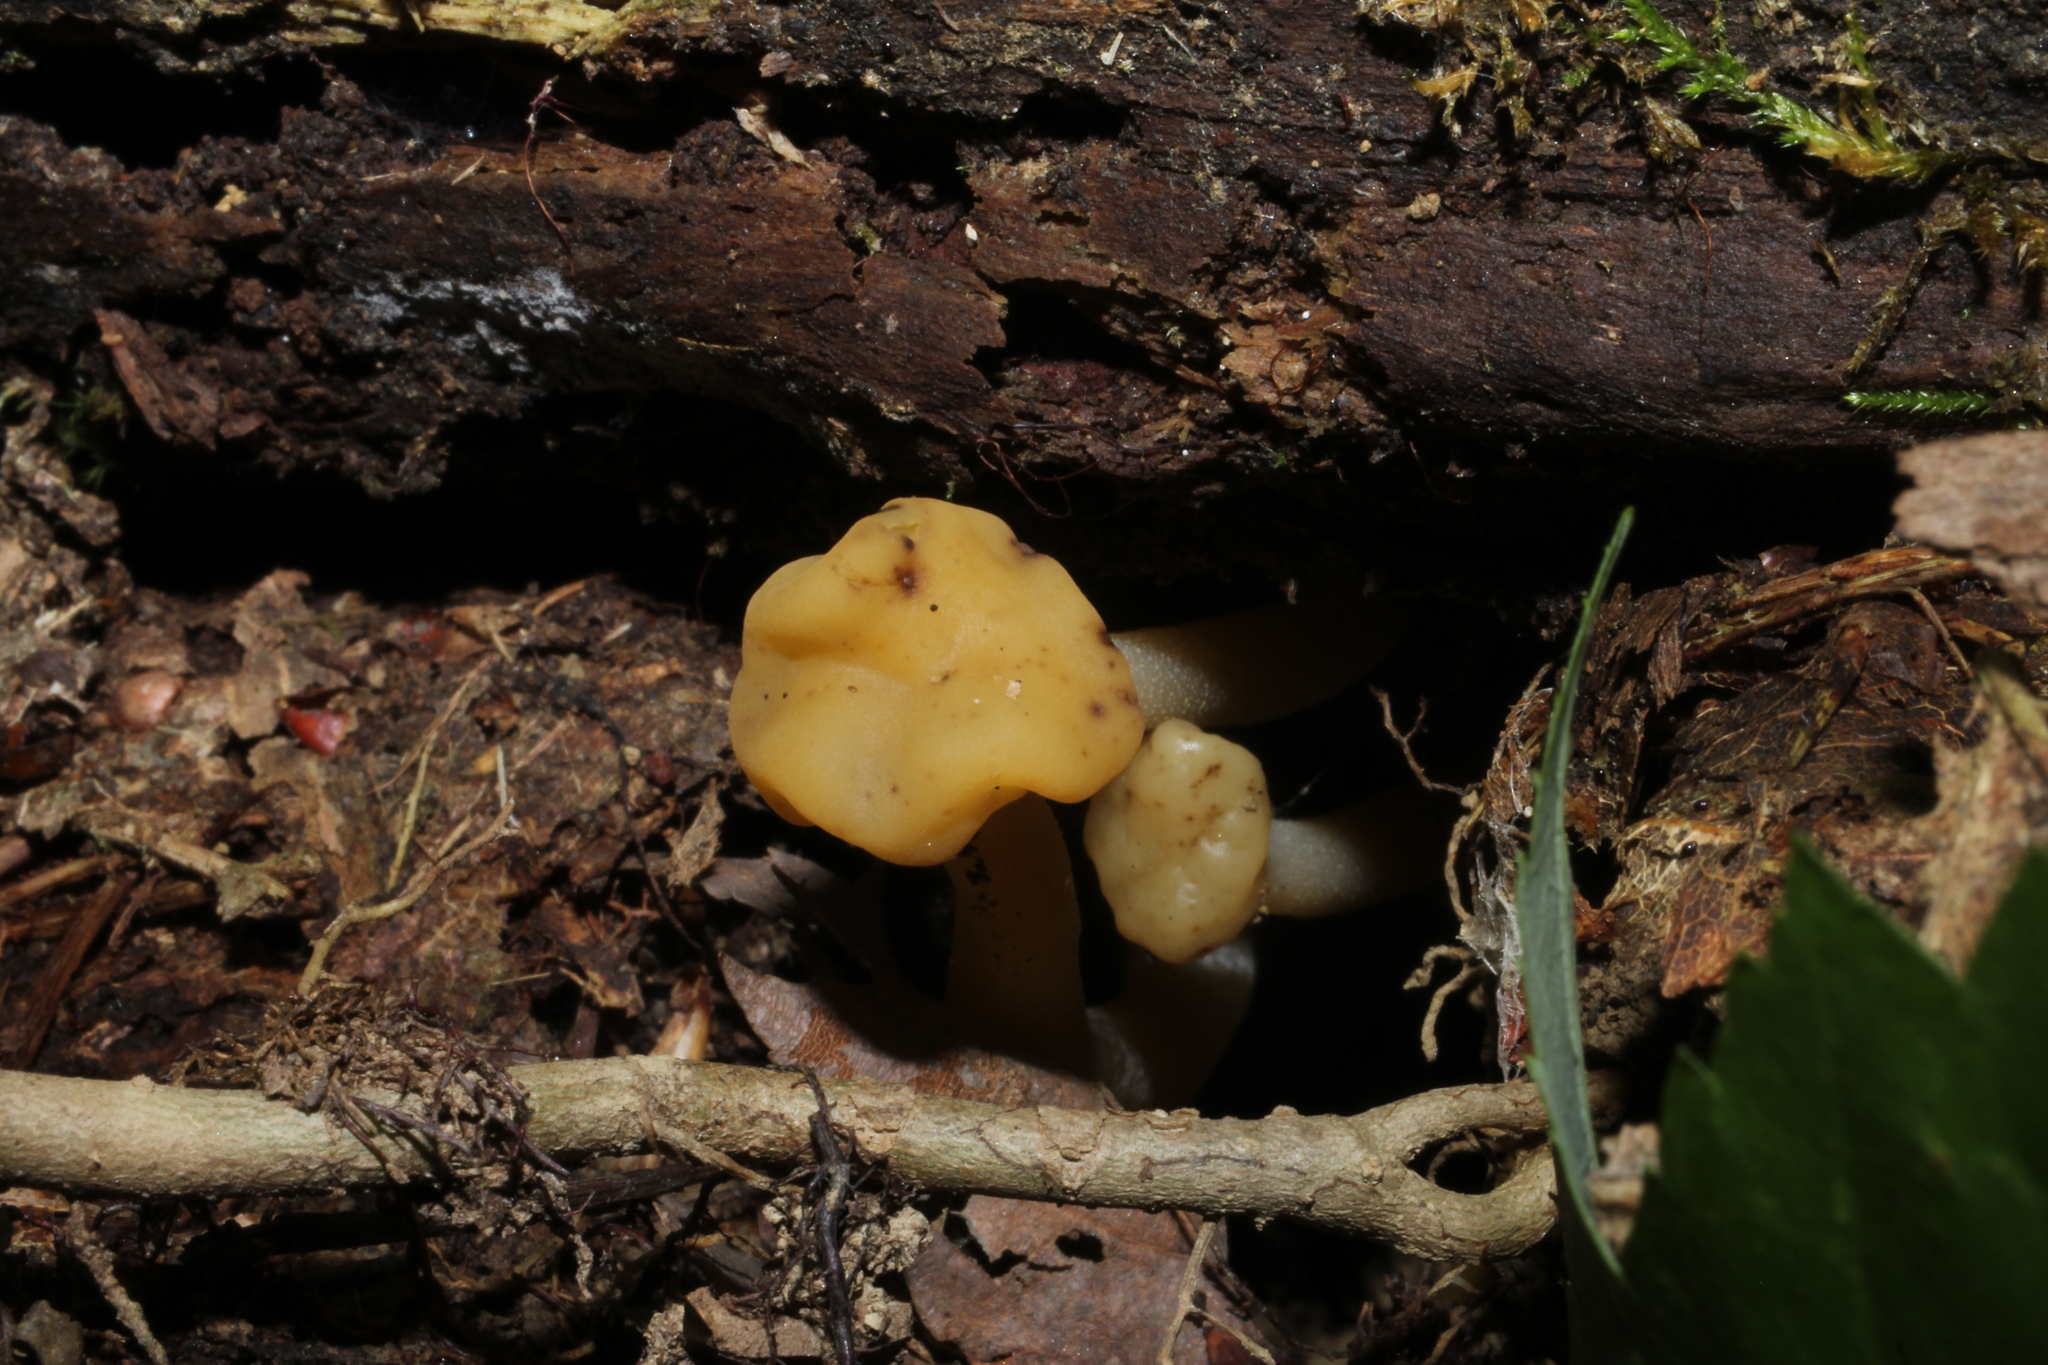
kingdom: Fungi
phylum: Ascomycota
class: Leotiomycetes
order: Leotiales
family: Leotiaceae
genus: Leotia
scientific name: Leotia lubrica
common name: Jellybaby
